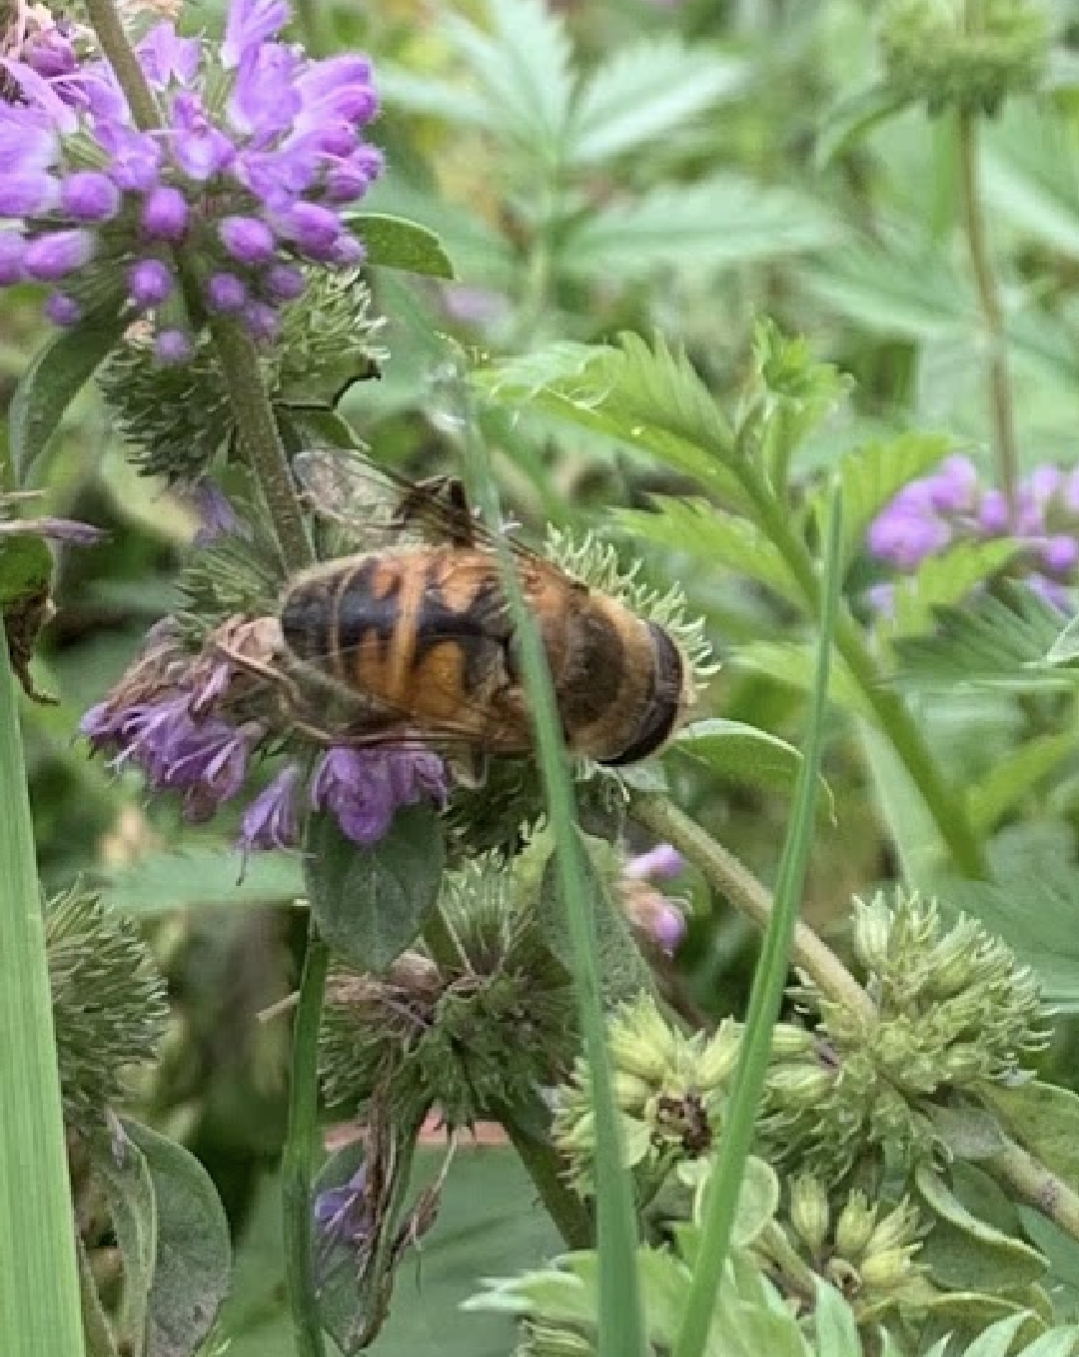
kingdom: Animalia
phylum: Arthropoda
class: Insecta
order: Diptera
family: Syrphidae
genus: Eristalis
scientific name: Eristalis tenax
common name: Drone fly
